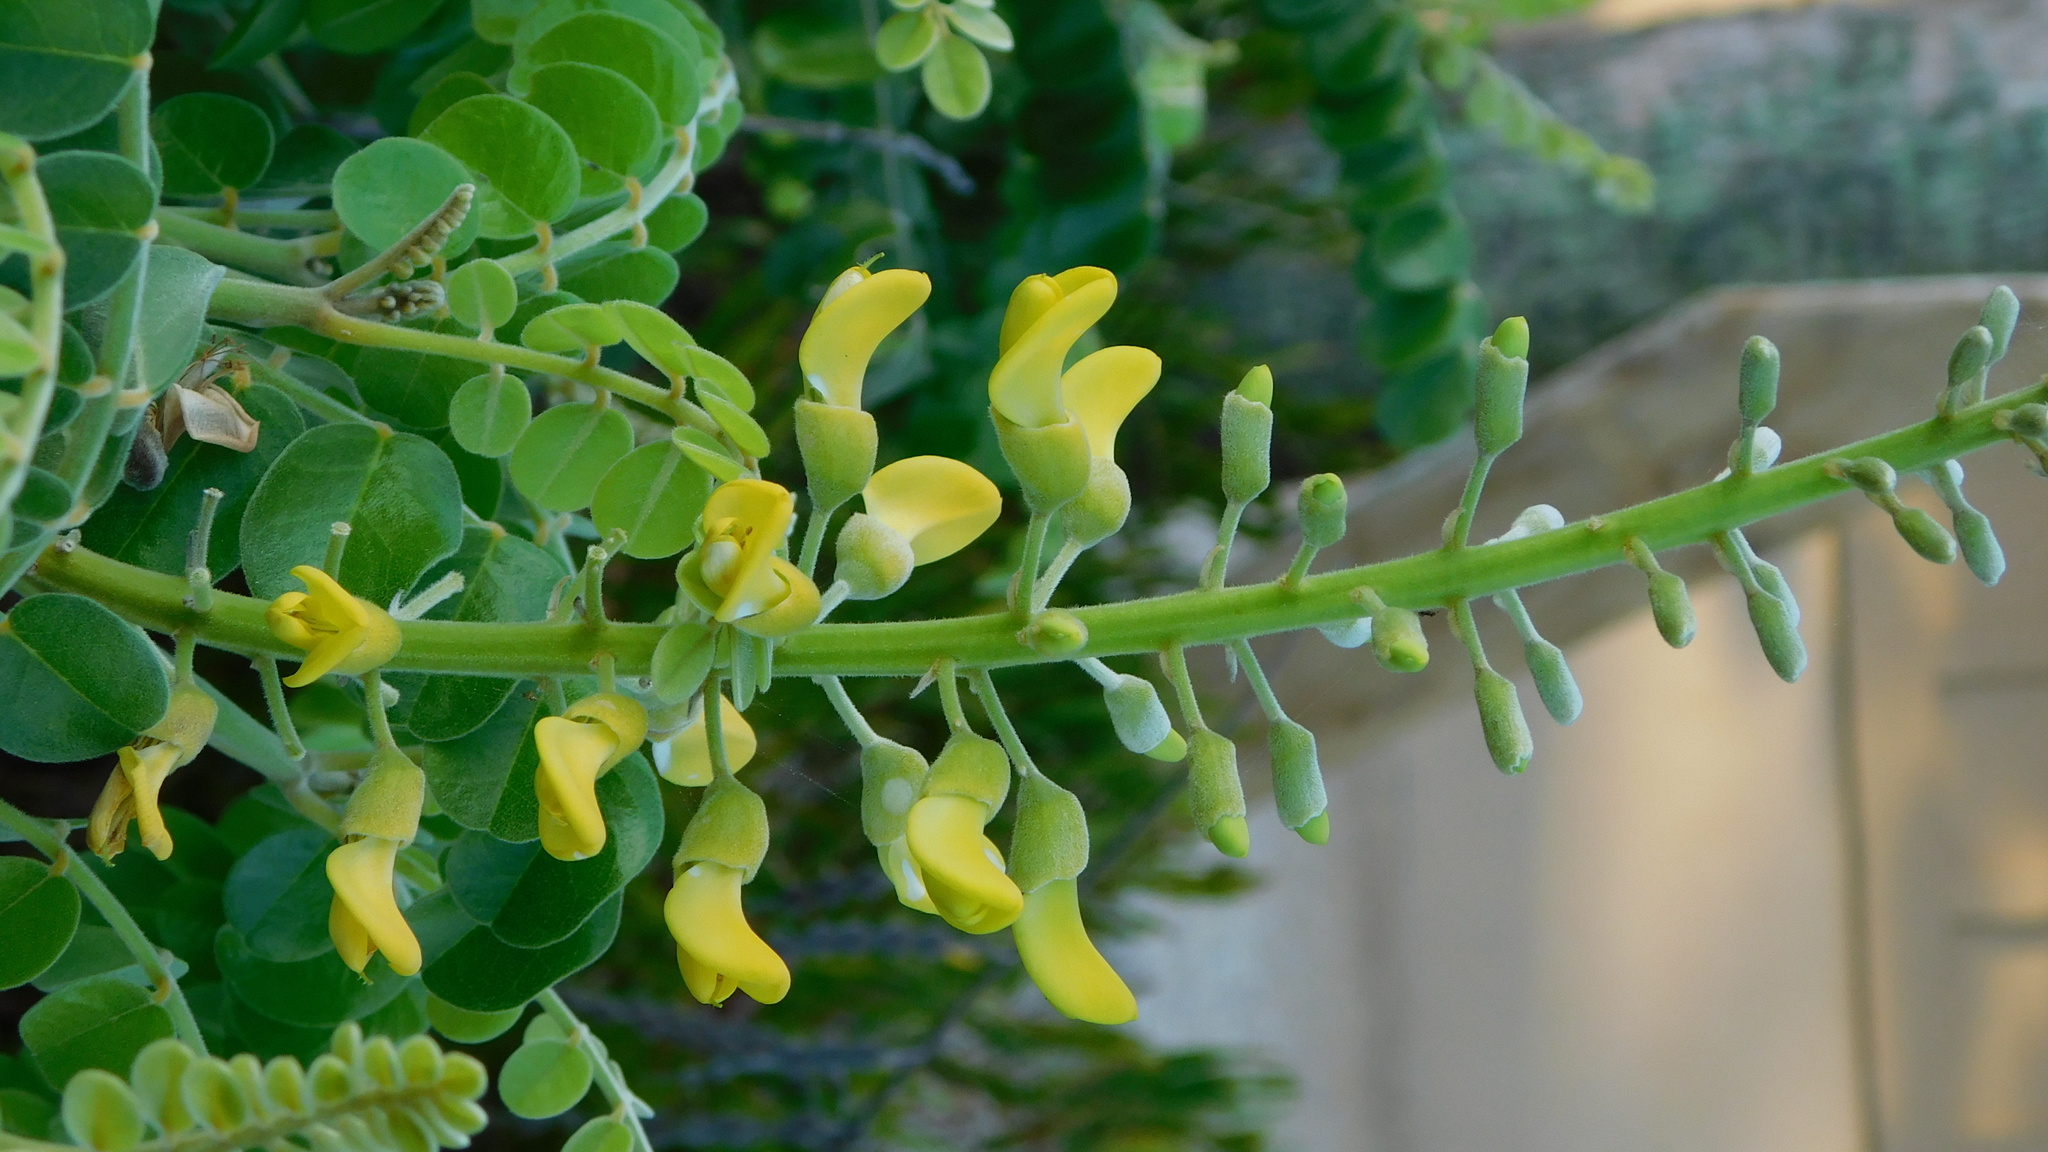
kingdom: Plantae
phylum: Tracheophyta
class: Magnoliopsida
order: Fabales
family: Fabaceae
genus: Sophora
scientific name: Sophora tomentosa
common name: Yellow necklacepod
